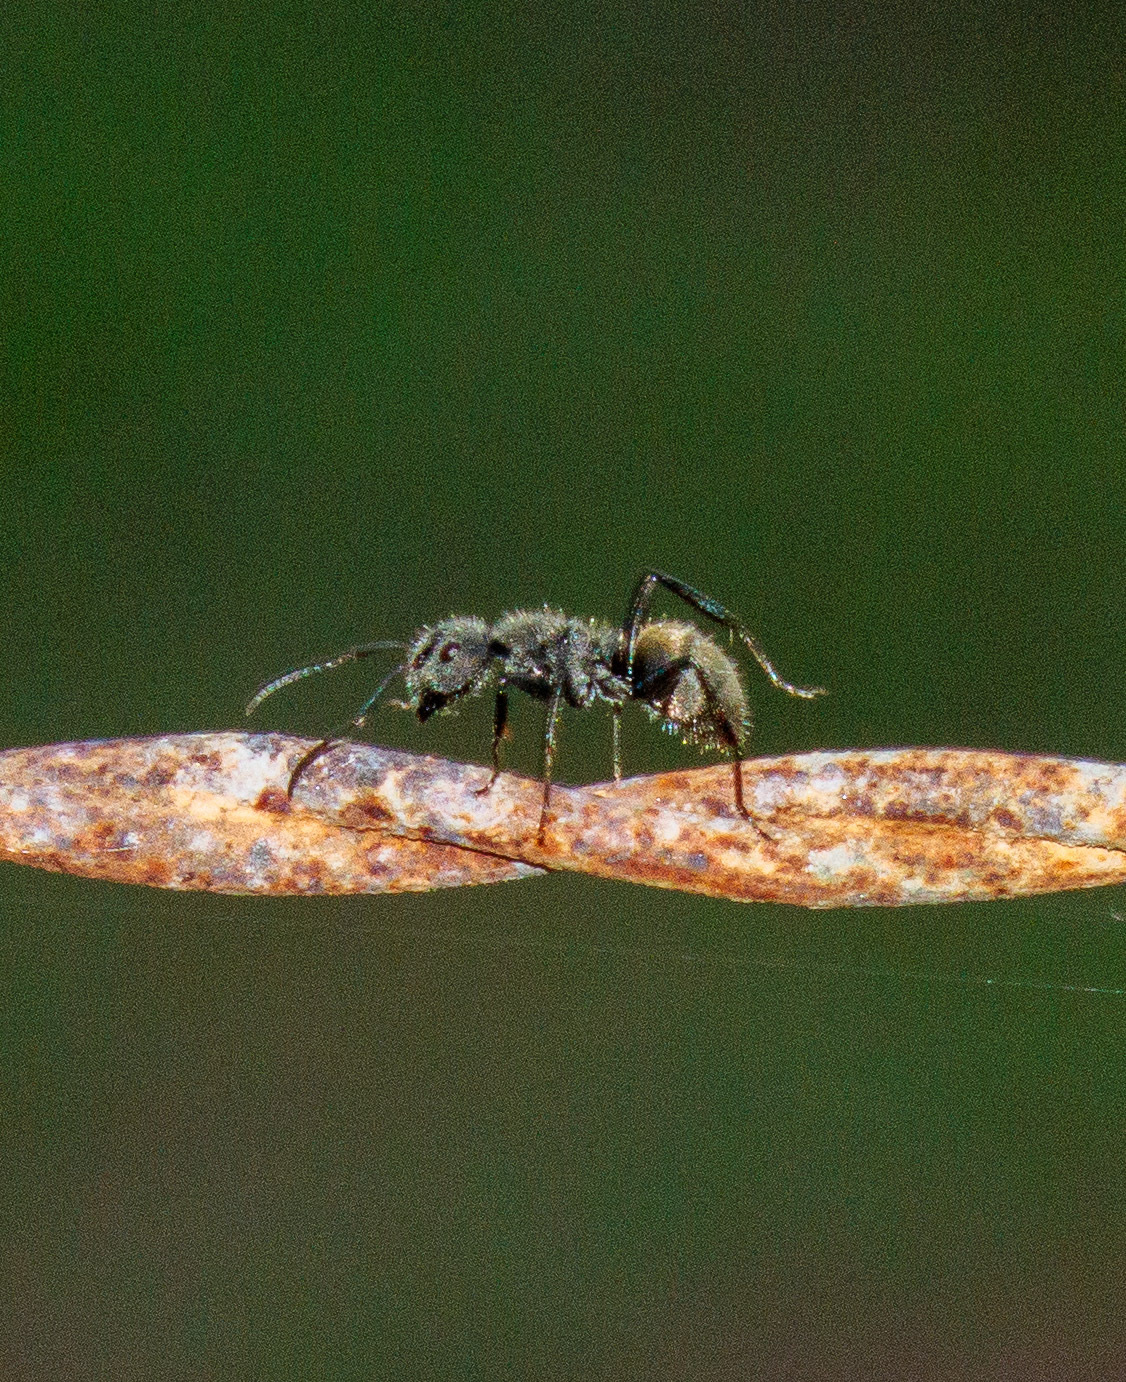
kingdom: Animalia
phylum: Arthropoda
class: Insecta
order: Hymenoptera
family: Formicidae
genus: Camponotus
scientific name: Camponotus arboreus
